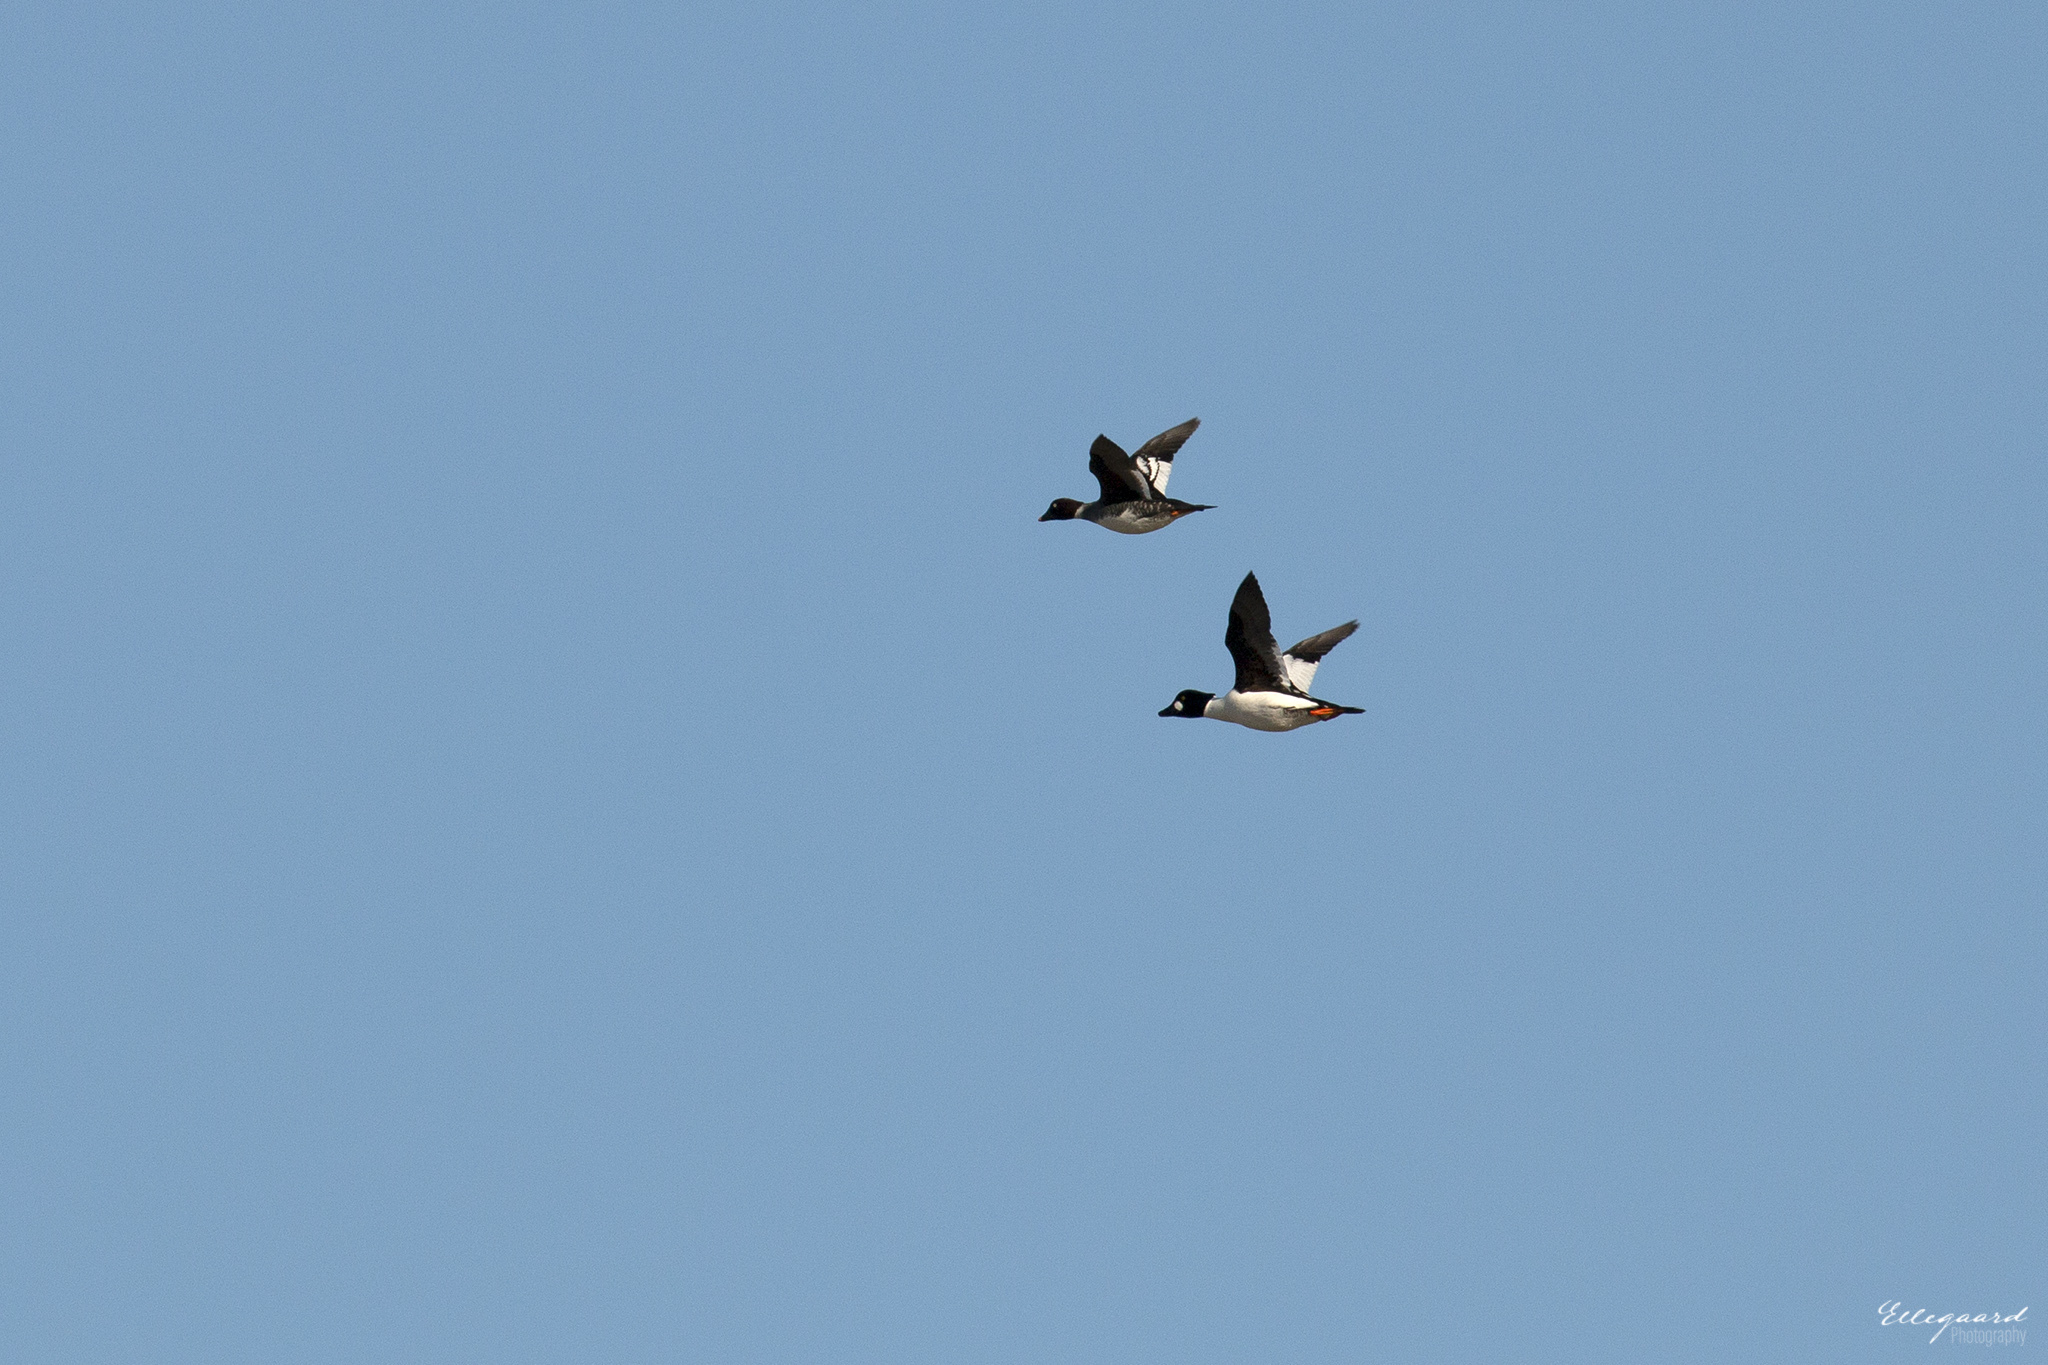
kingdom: Animalia
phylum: Chordata
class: Aves
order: Anseriformes
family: Anatidae
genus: Bucephala
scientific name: Bucephala clangula
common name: Common goldeneye
